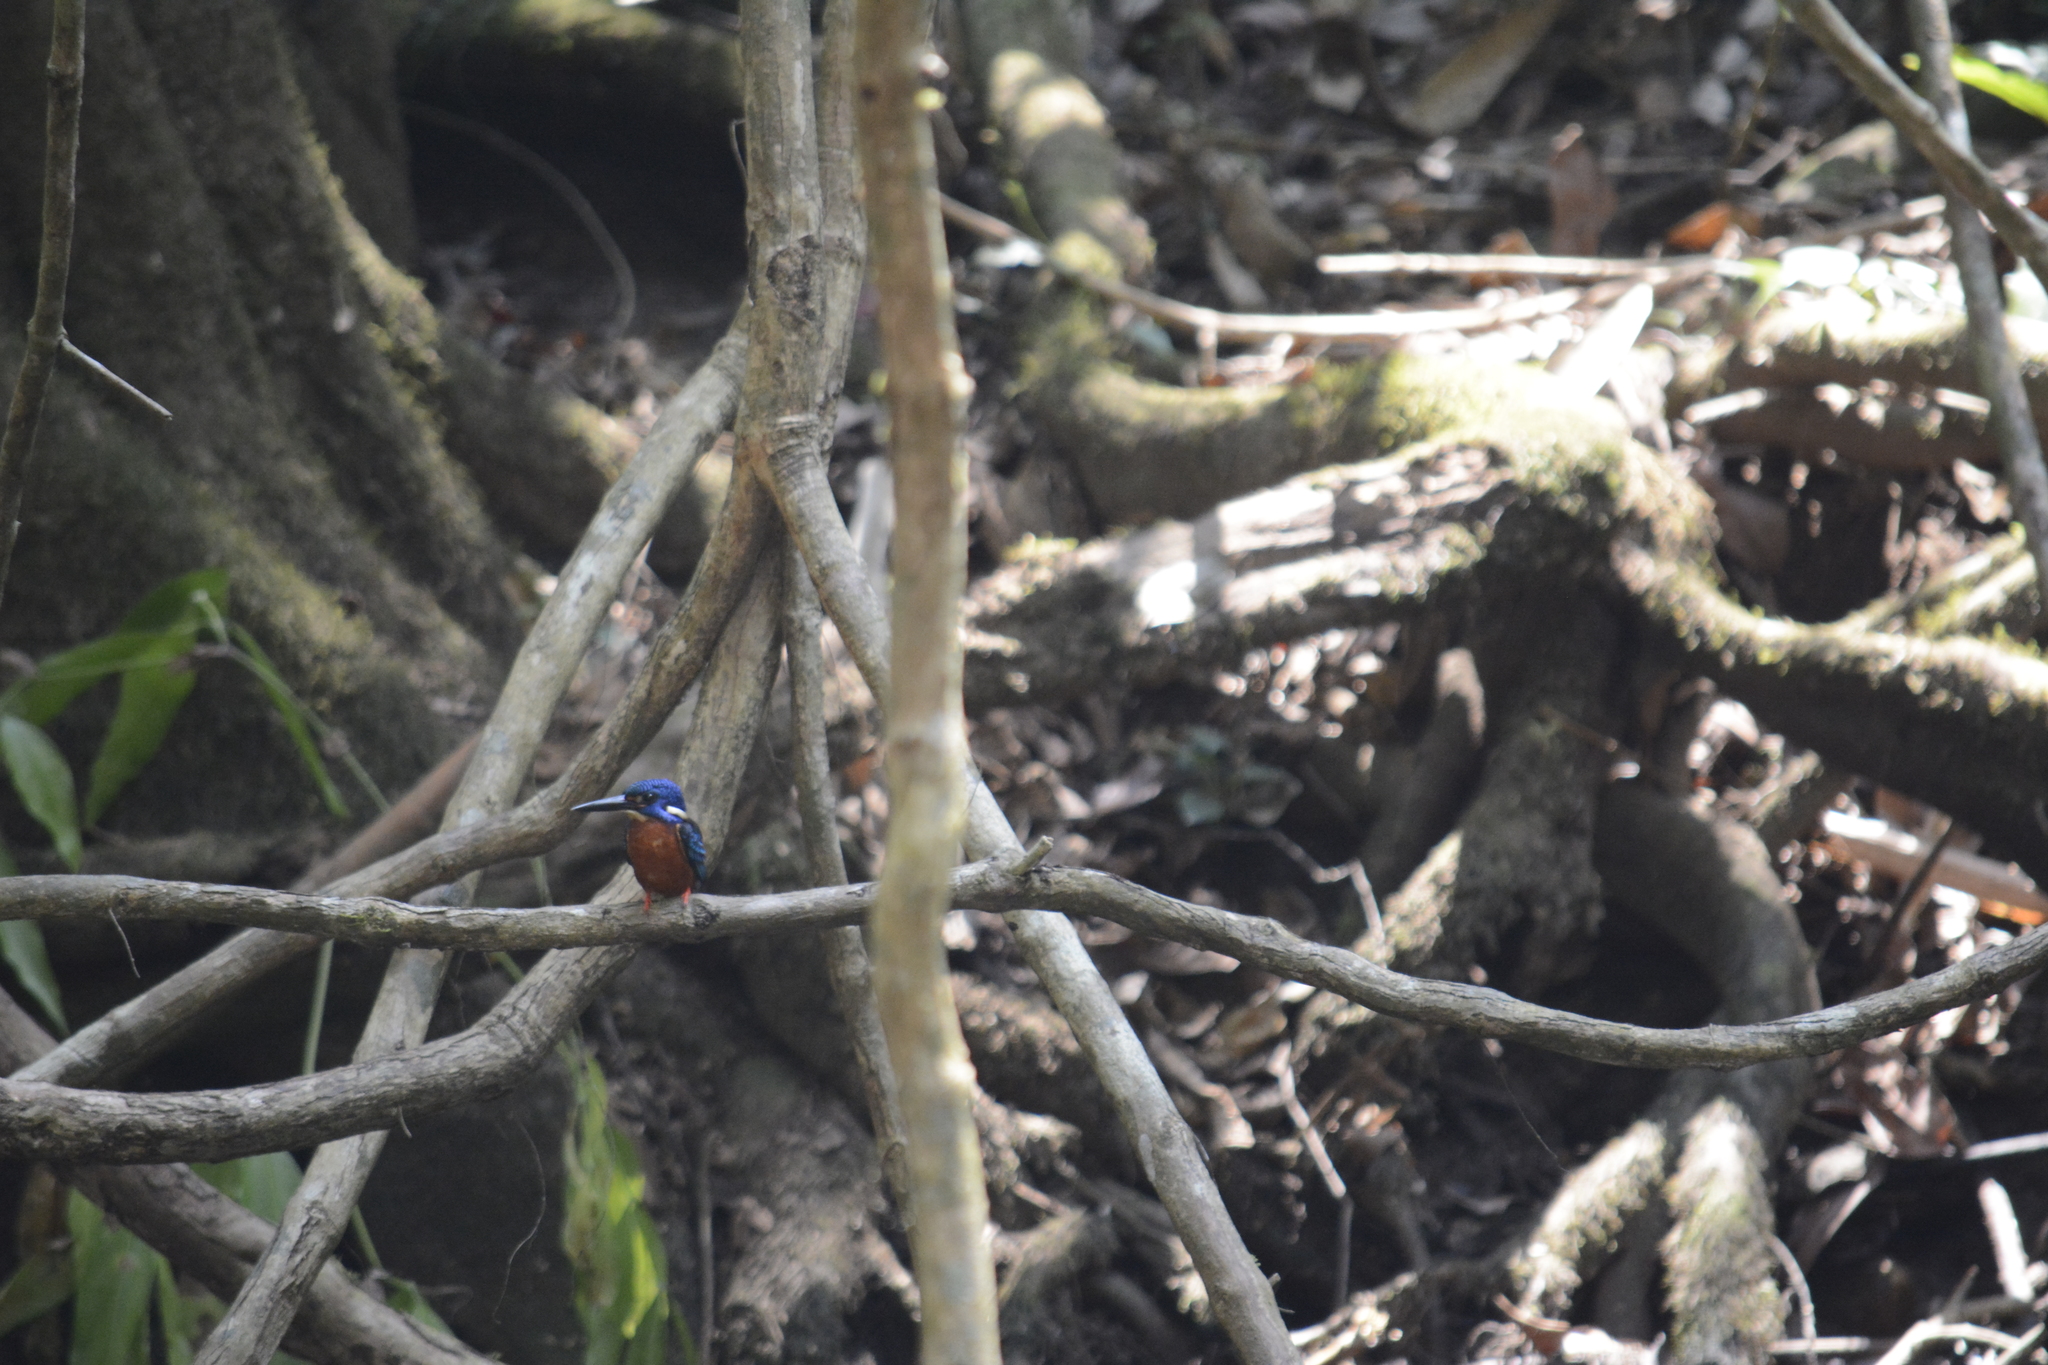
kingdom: Animalia
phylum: Chordata
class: Aves
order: Coraciiformes
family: Alcedinidae
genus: Alcedo
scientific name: Alcedo meninting
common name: Blue-eared kingfisher
